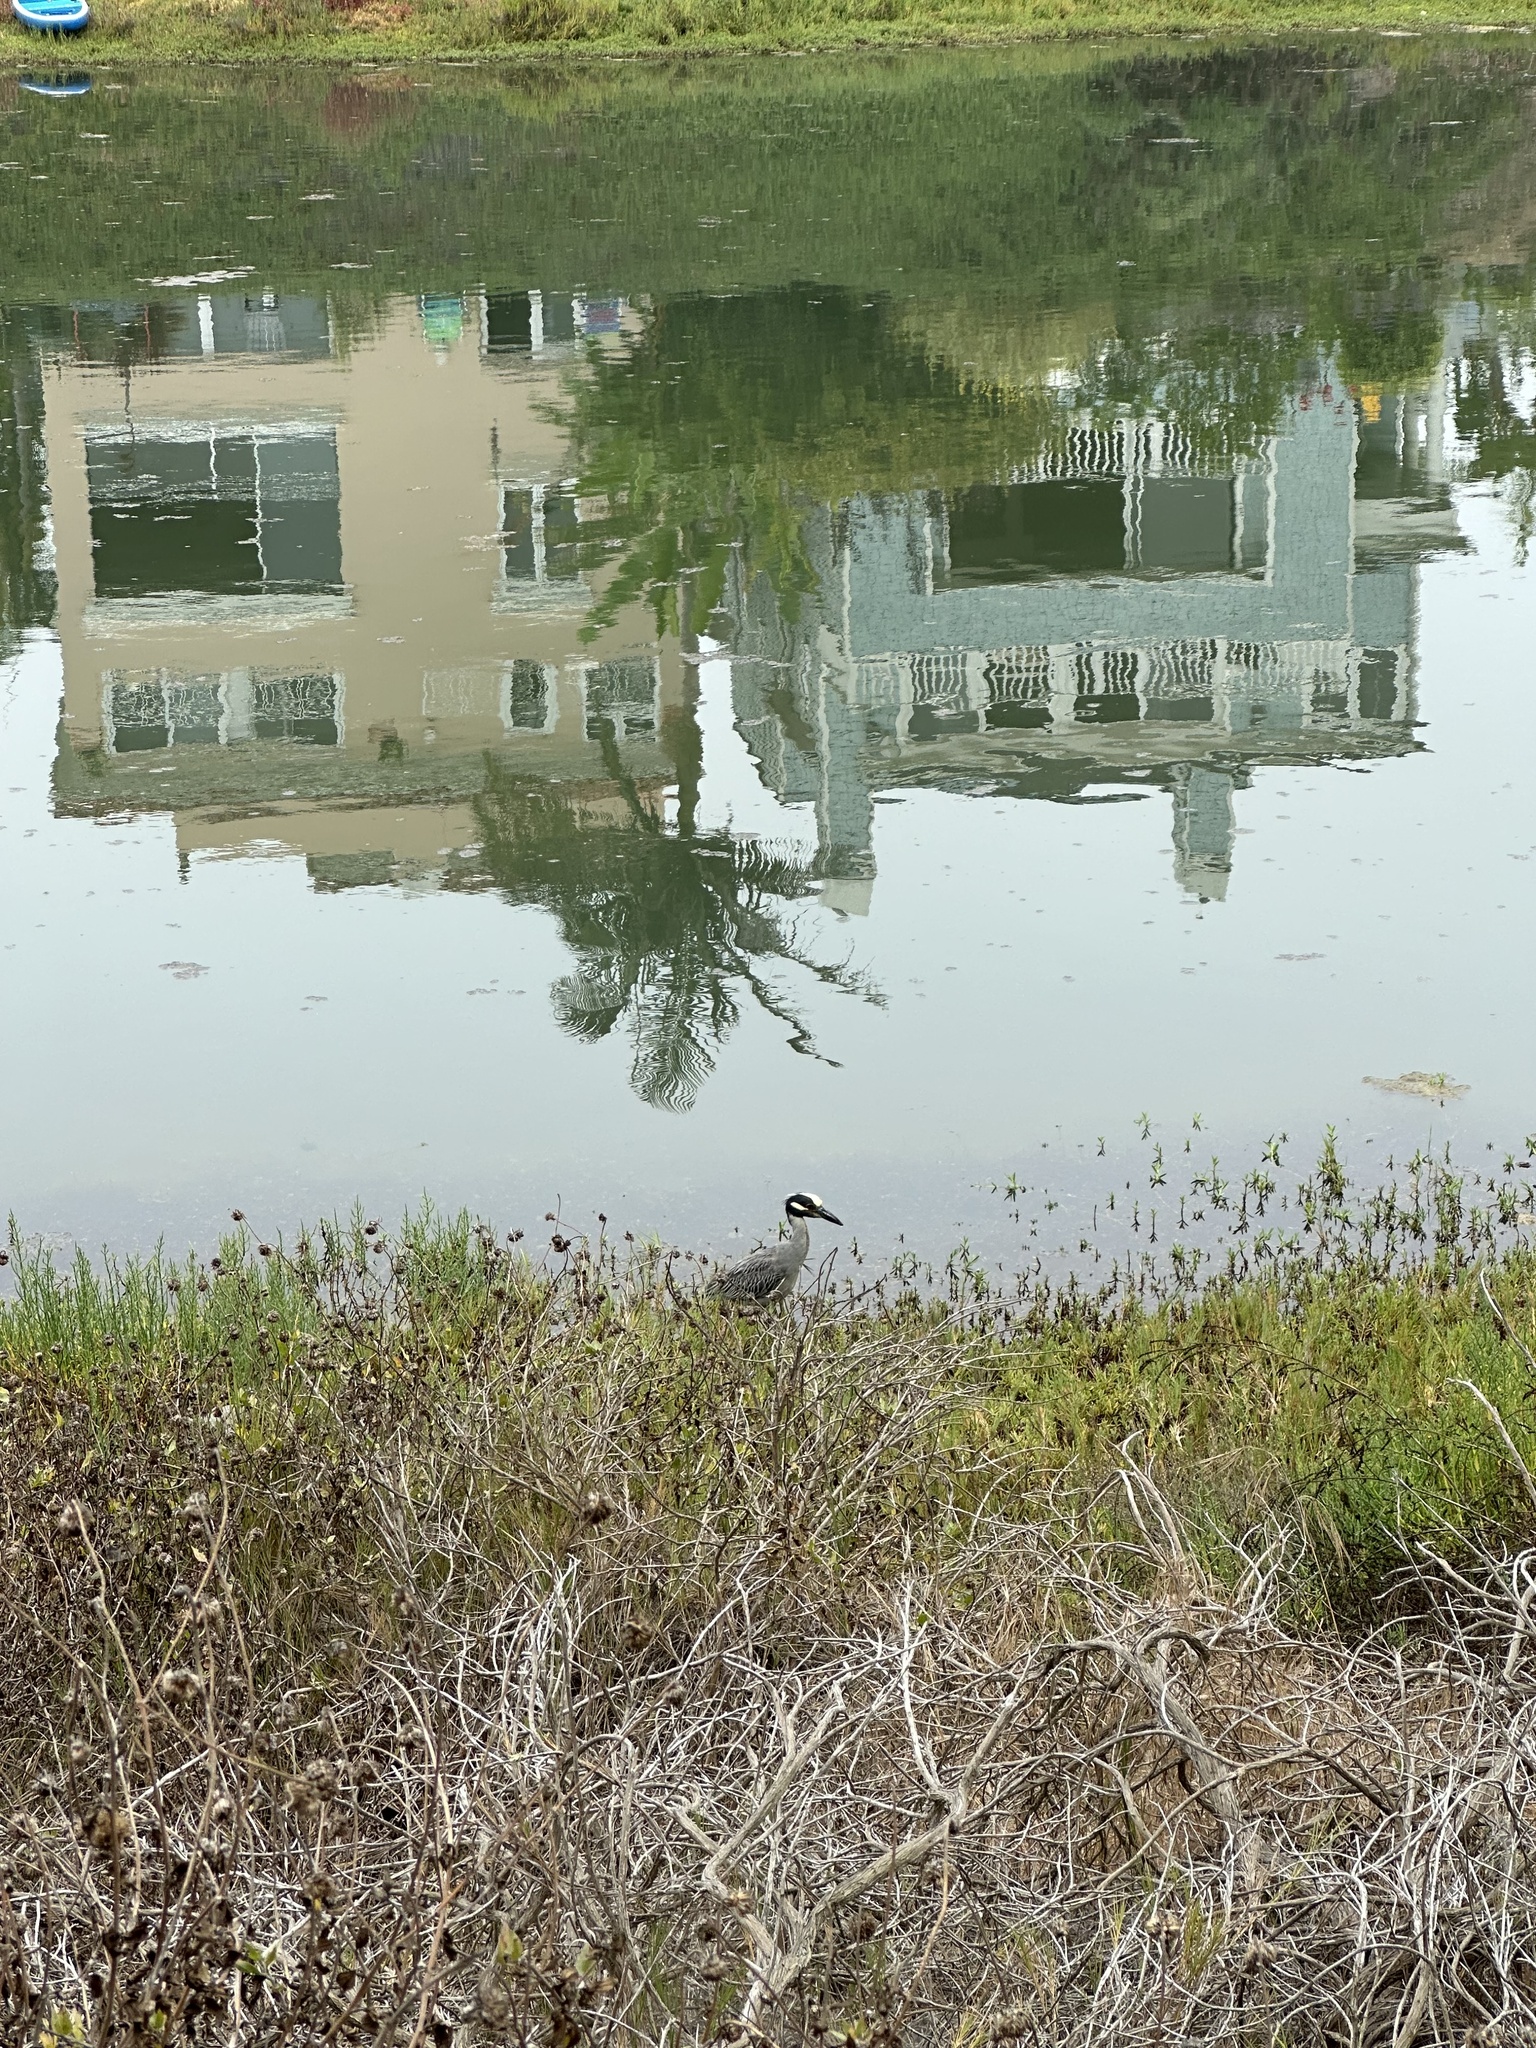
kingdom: Animalia
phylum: Chordata
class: Aves
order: Pelecaniformes
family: Ardeidae
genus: Nyctanassa
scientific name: Nyctanassa violacea
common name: Yellow-crowned night heron
